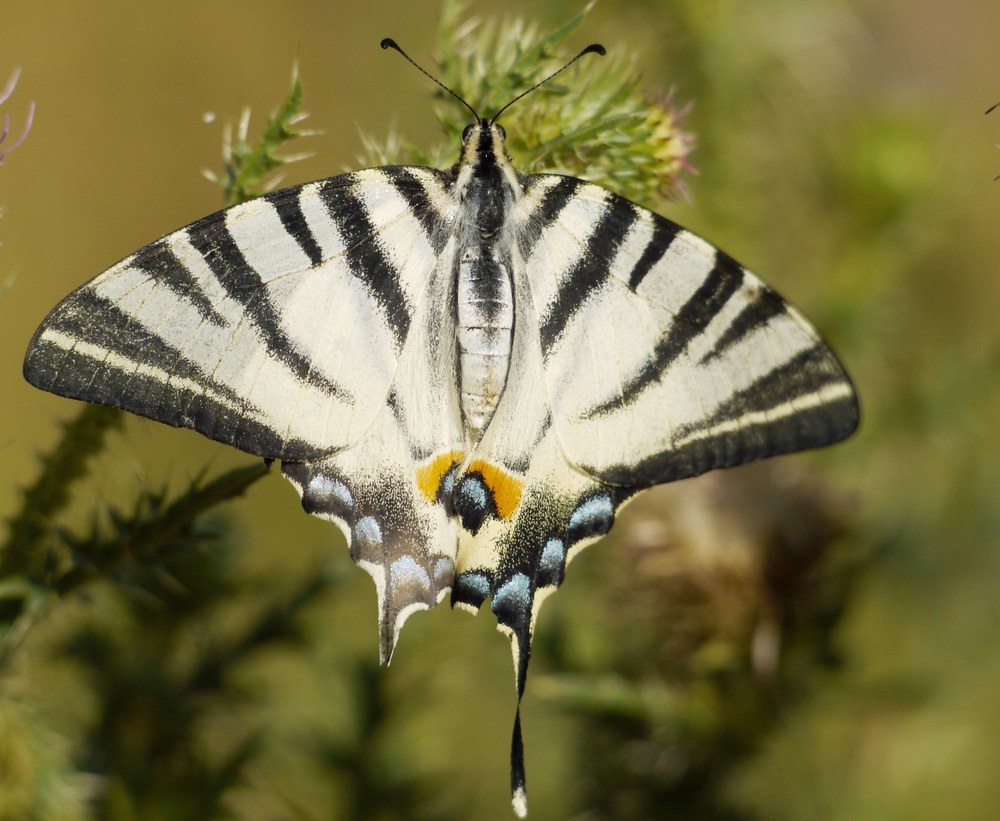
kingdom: Animalia
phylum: Arthropoda
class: Insecta
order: Lepidoptera
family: Papilionidae
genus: Iphiclides
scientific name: Iphiclides podalirius
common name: Scarce swallowtail
